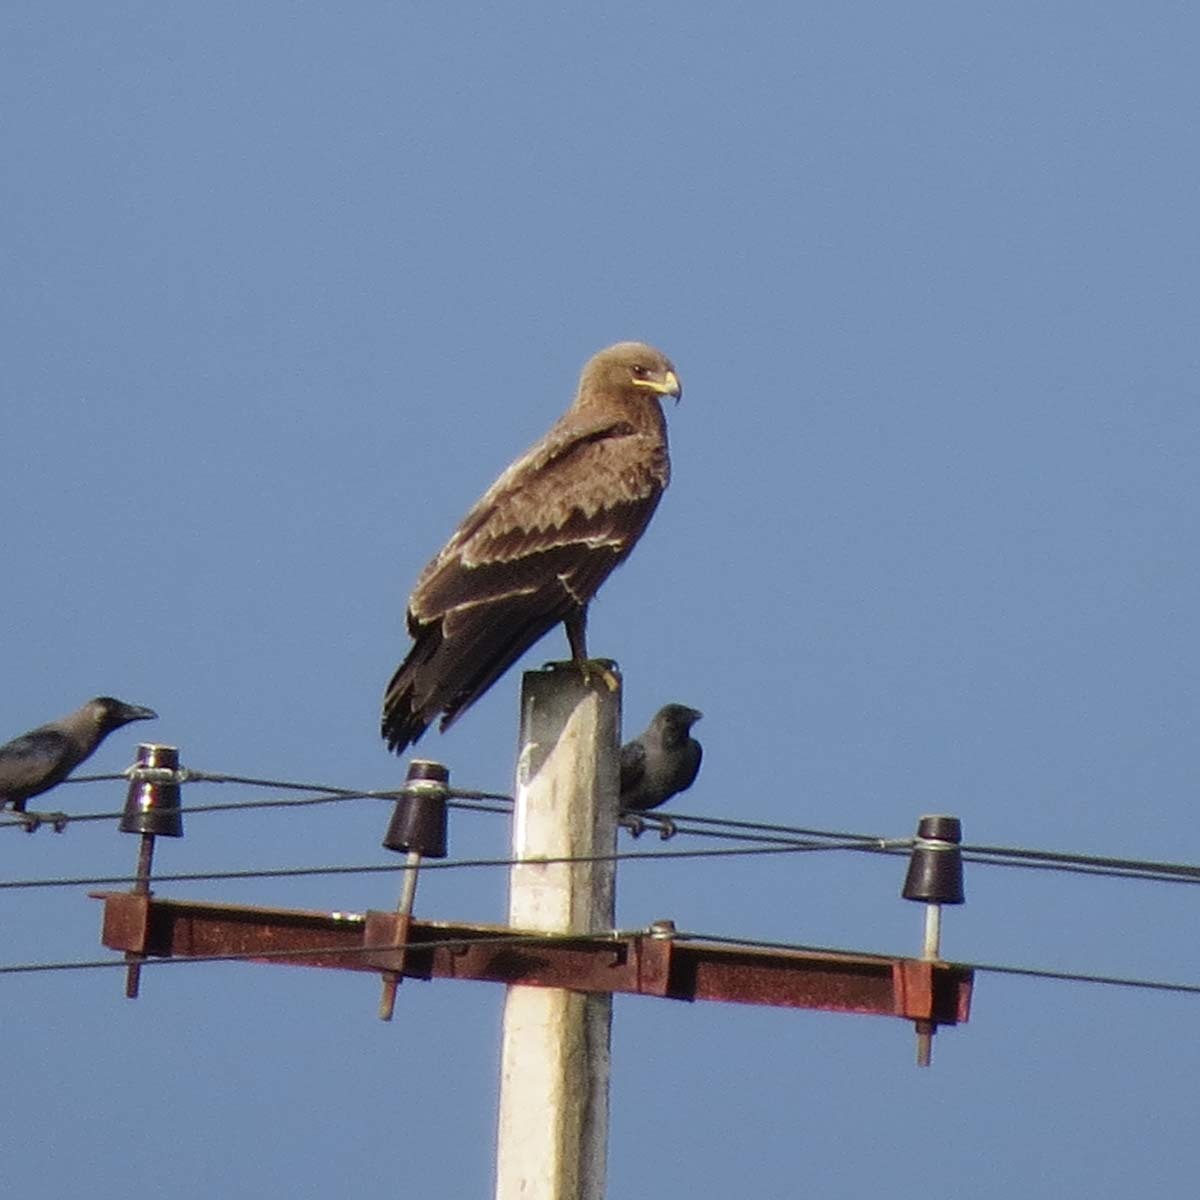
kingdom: Animalia
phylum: Chordata
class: Aves
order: Accipitriformes
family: Accipitridae
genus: Aquila
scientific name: Aquila hastata
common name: Indian spotted eagle
